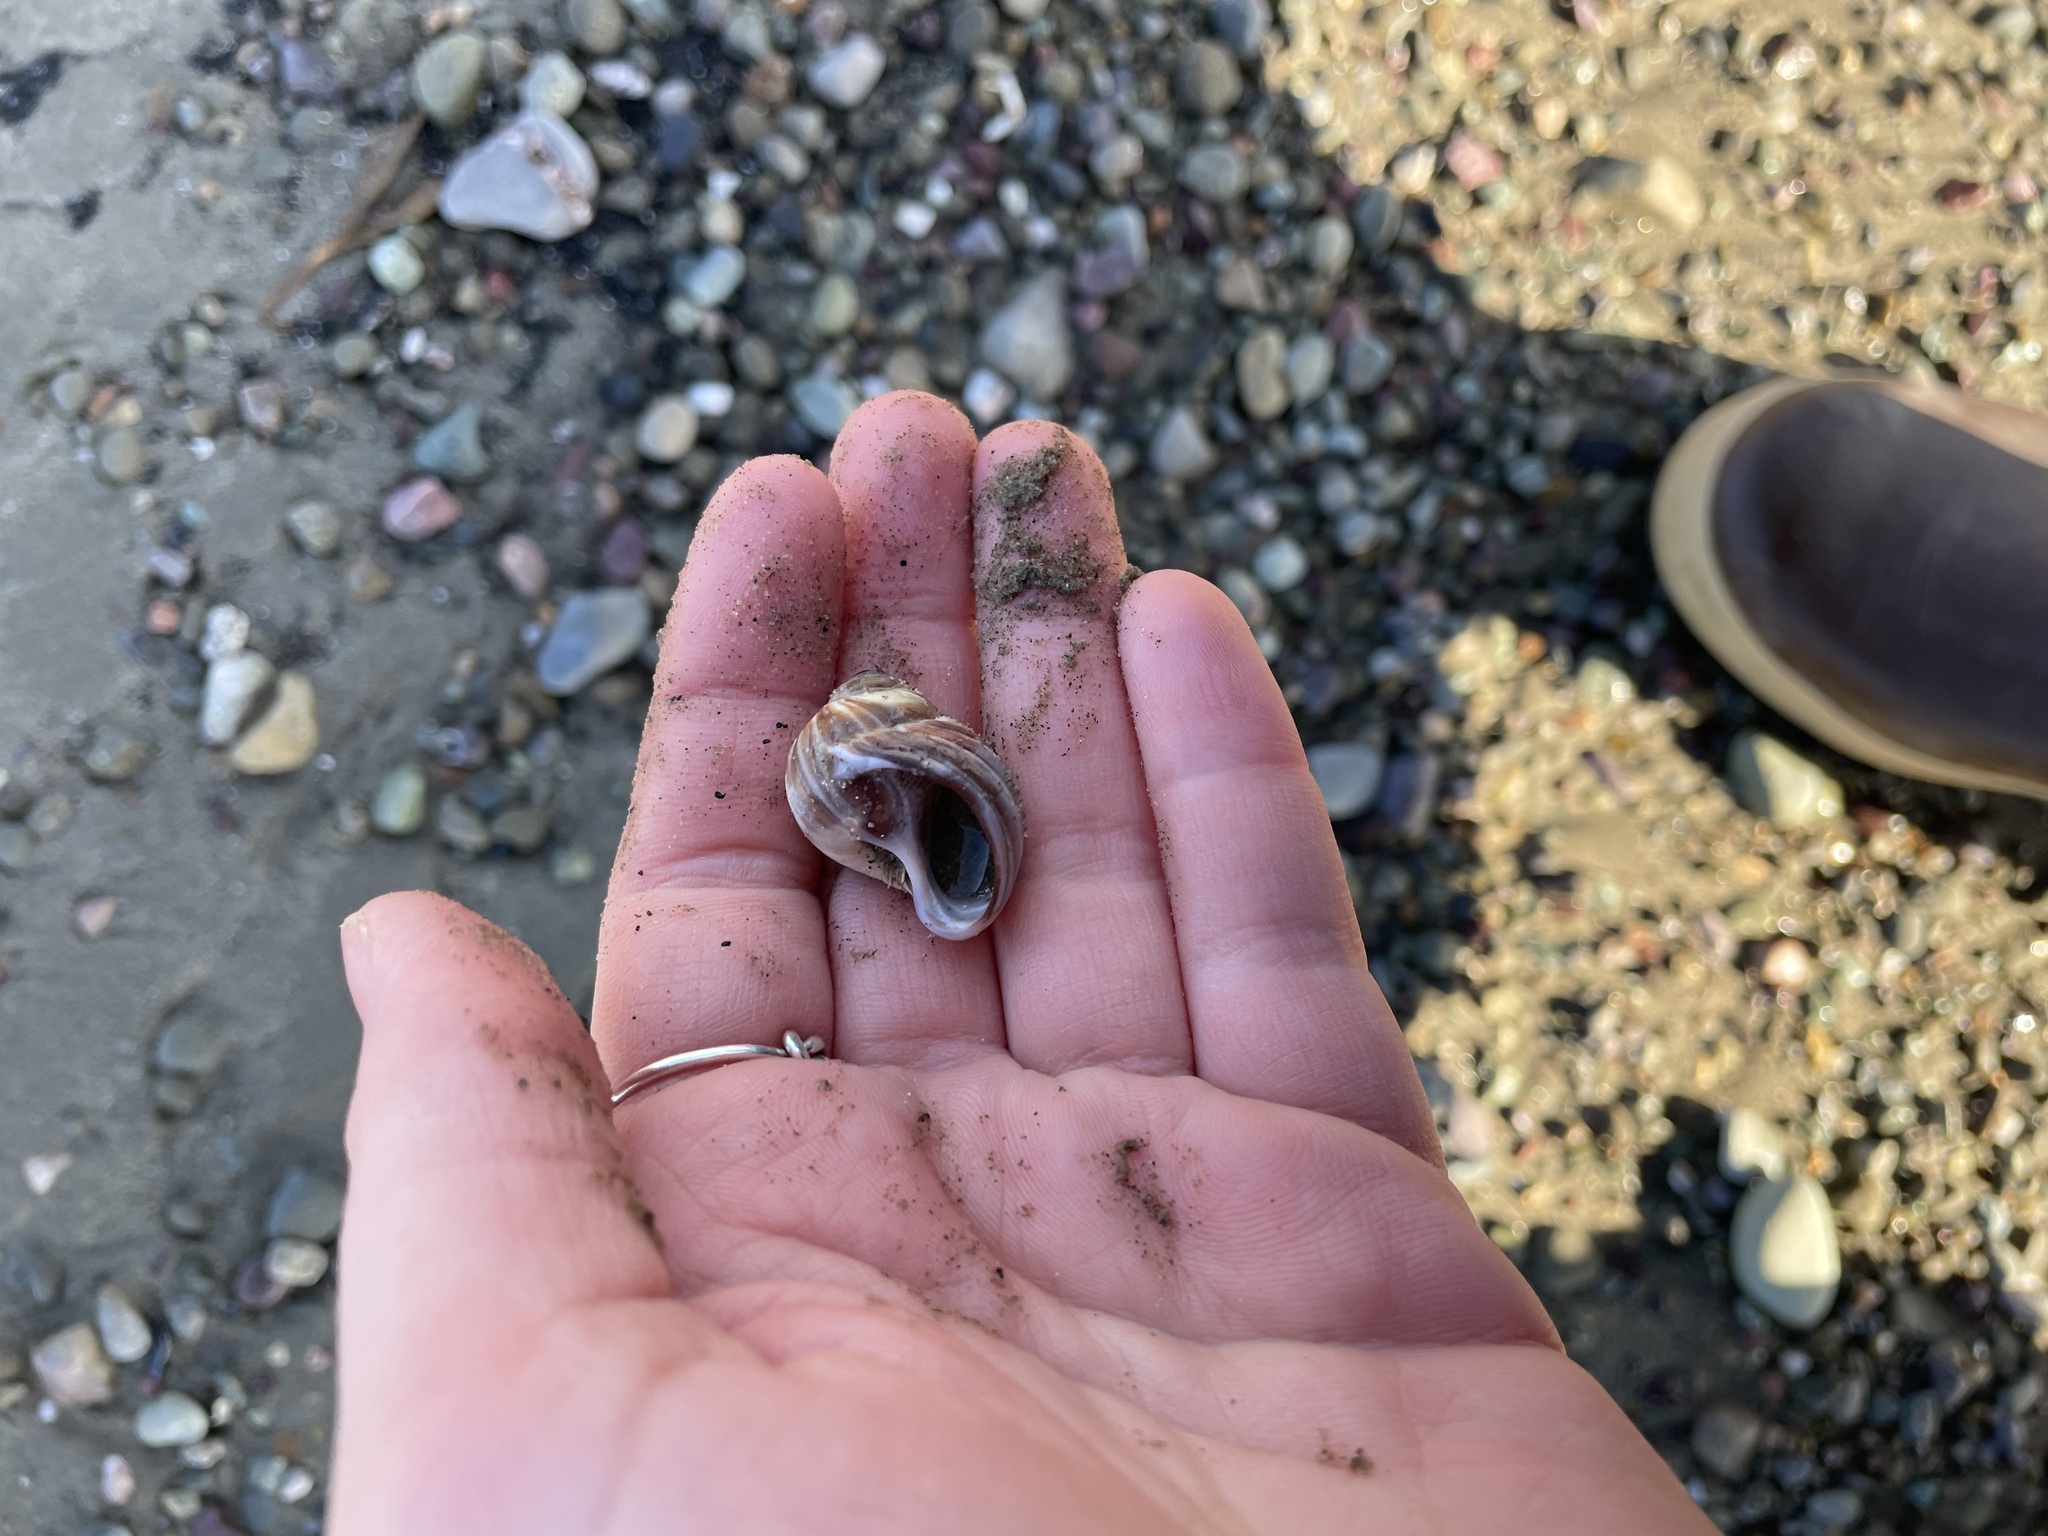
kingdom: Animalia
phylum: Mollusca
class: Gastropoda
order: Littorinimorpha
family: Naticidae
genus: Euspira
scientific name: Euspira heros
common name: Common northern moonsnail
